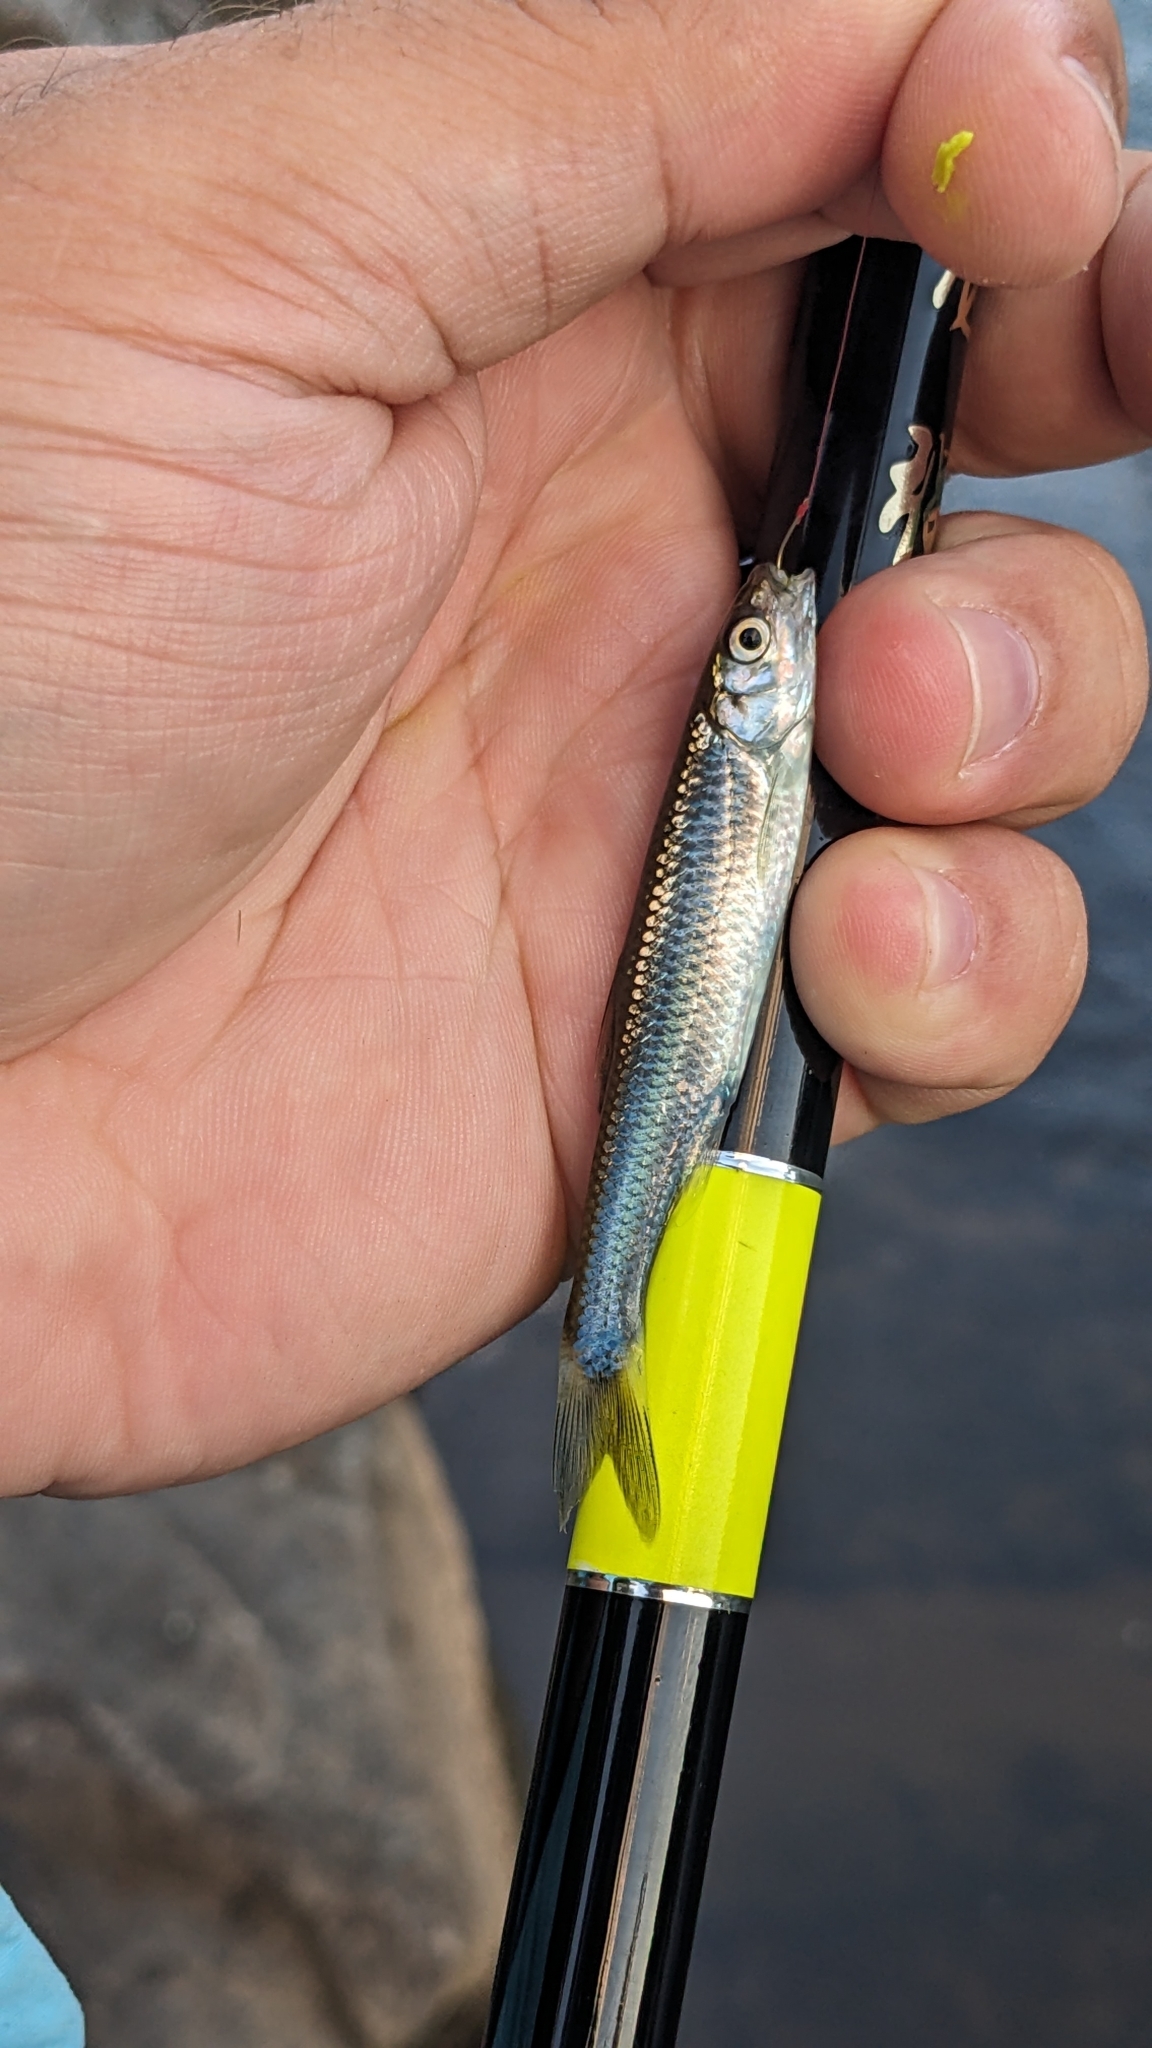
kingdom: Animalia
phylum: Chordata
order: Cypriniformes
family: Cyprinidae
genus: Cyprinella
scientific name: Cyprinella galactura
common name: Whitetail shiner
